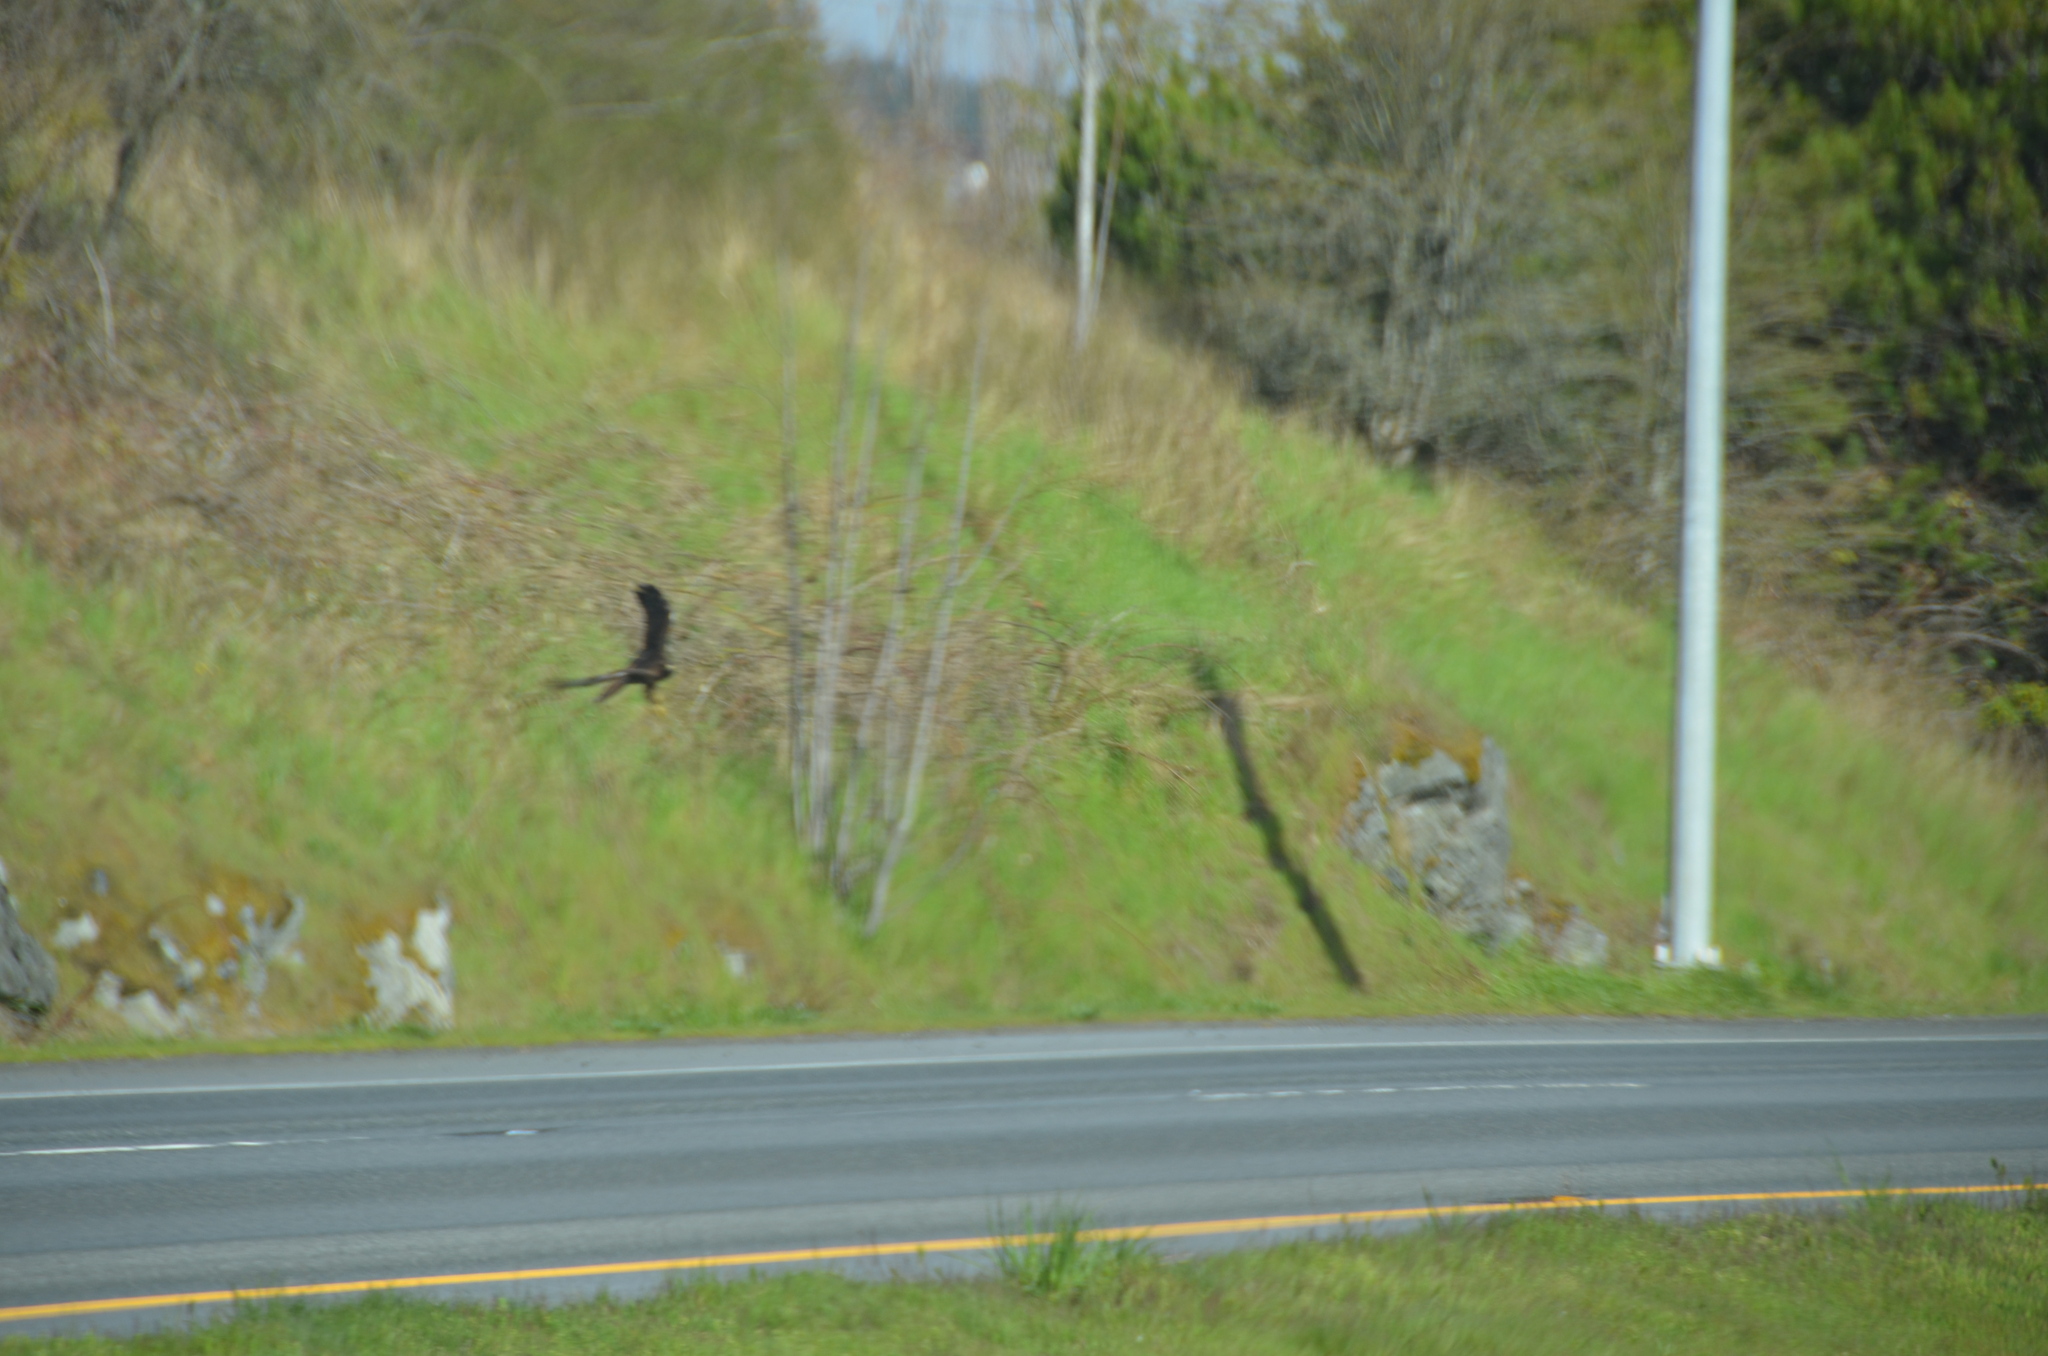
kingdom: Animalia
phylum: Chordata
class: Aves
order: Accipitriformes
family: Accipitridae
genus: Buteo
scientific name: Buteo jamaicensis
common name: Red-tailed hawk
